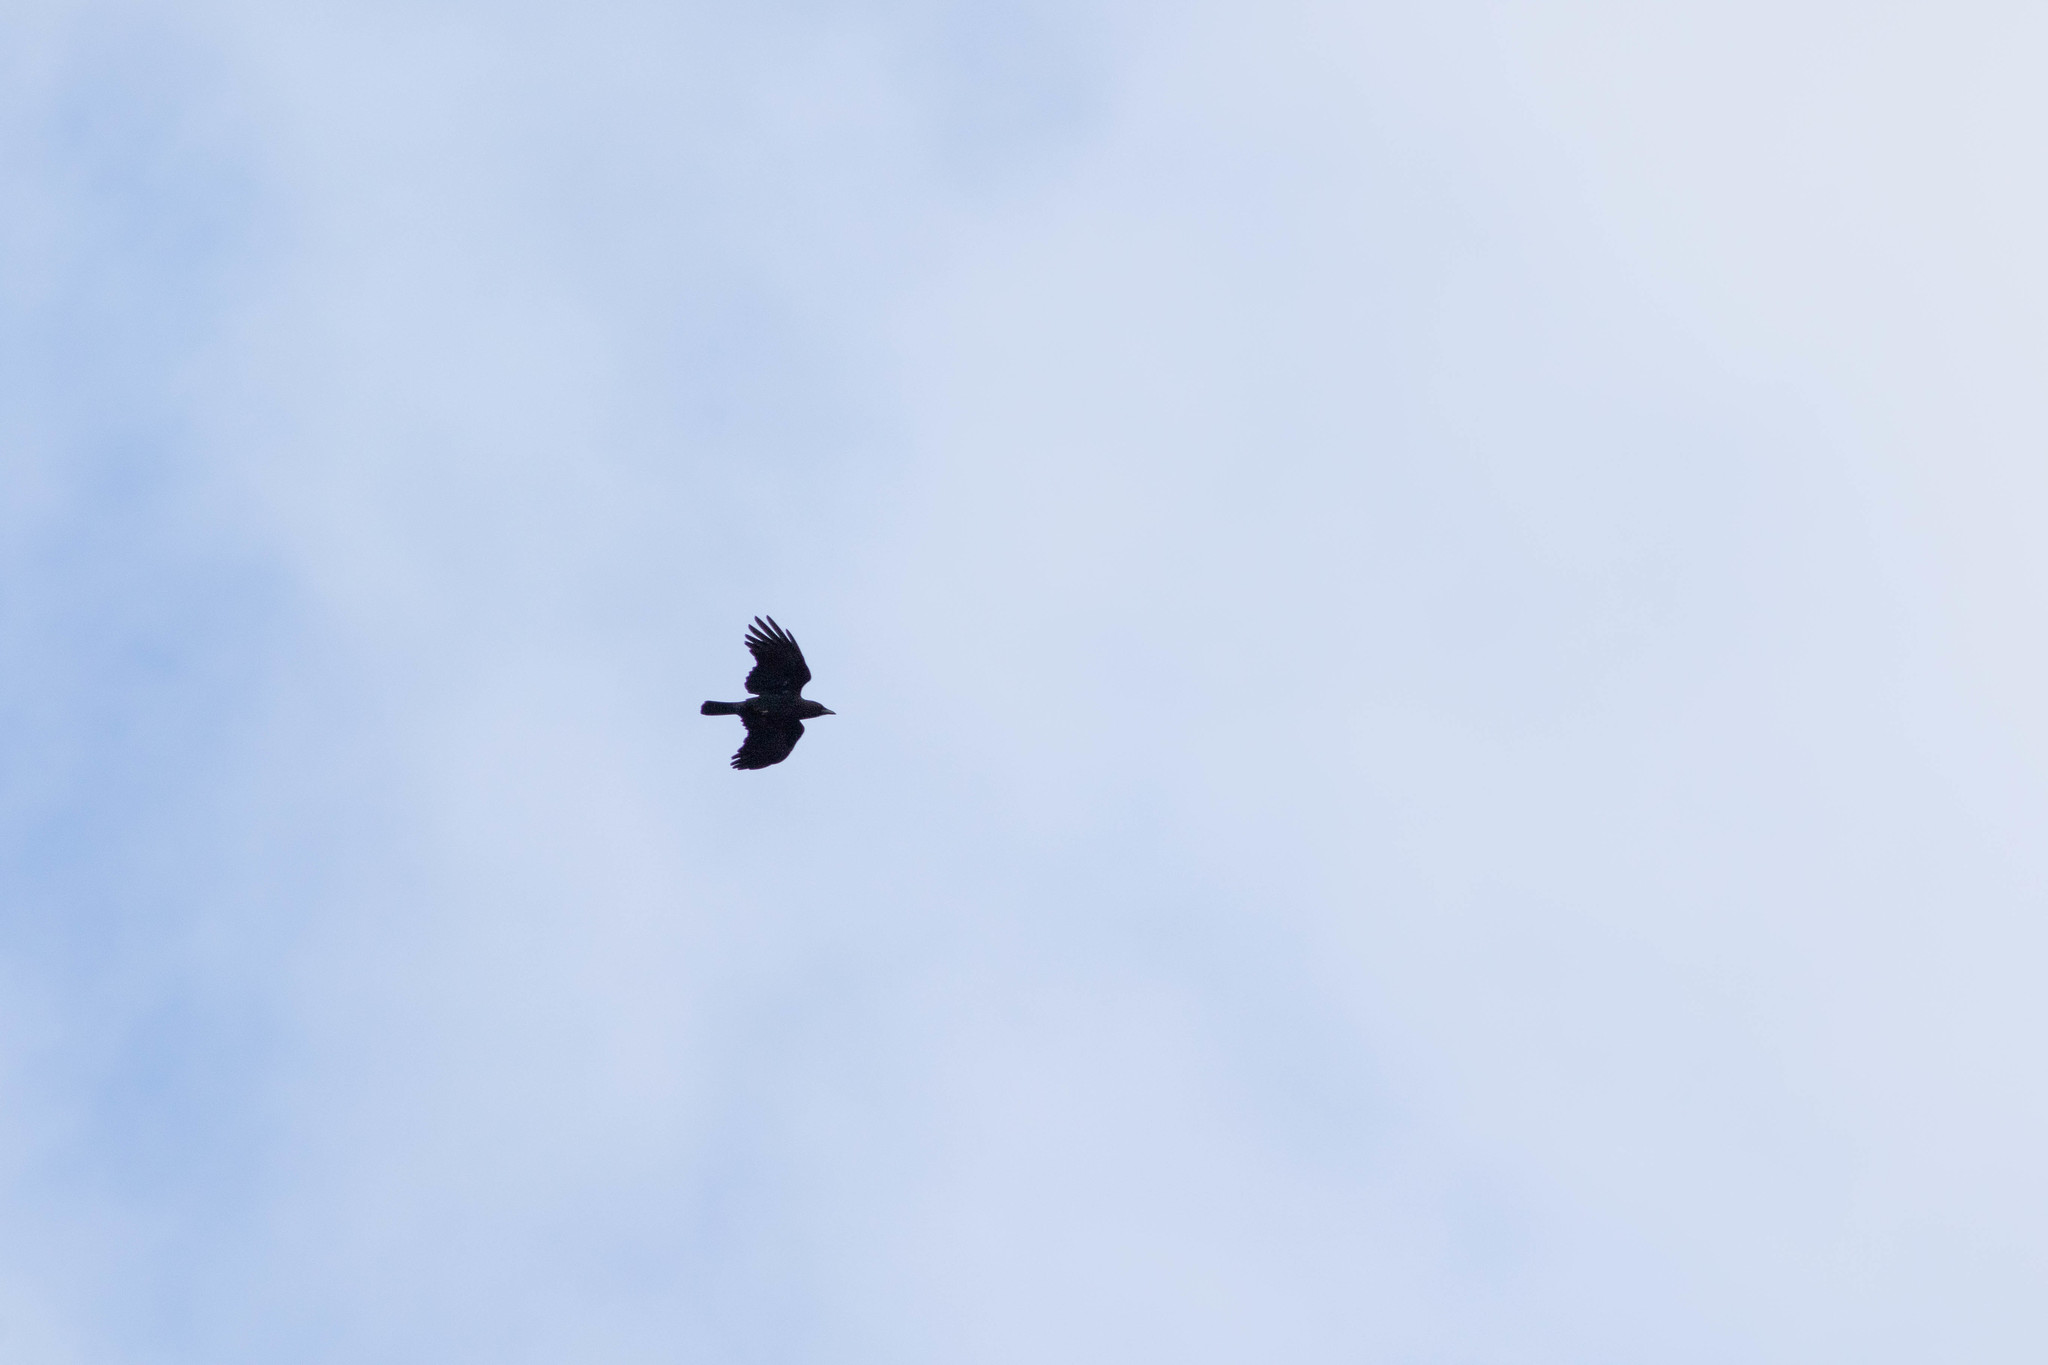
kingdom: Animalia
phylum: Chordata
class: Aves
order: Passeriformes
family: Corvidae
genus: Corvus
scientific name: Corvus brachyrhynchos
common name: American crow
